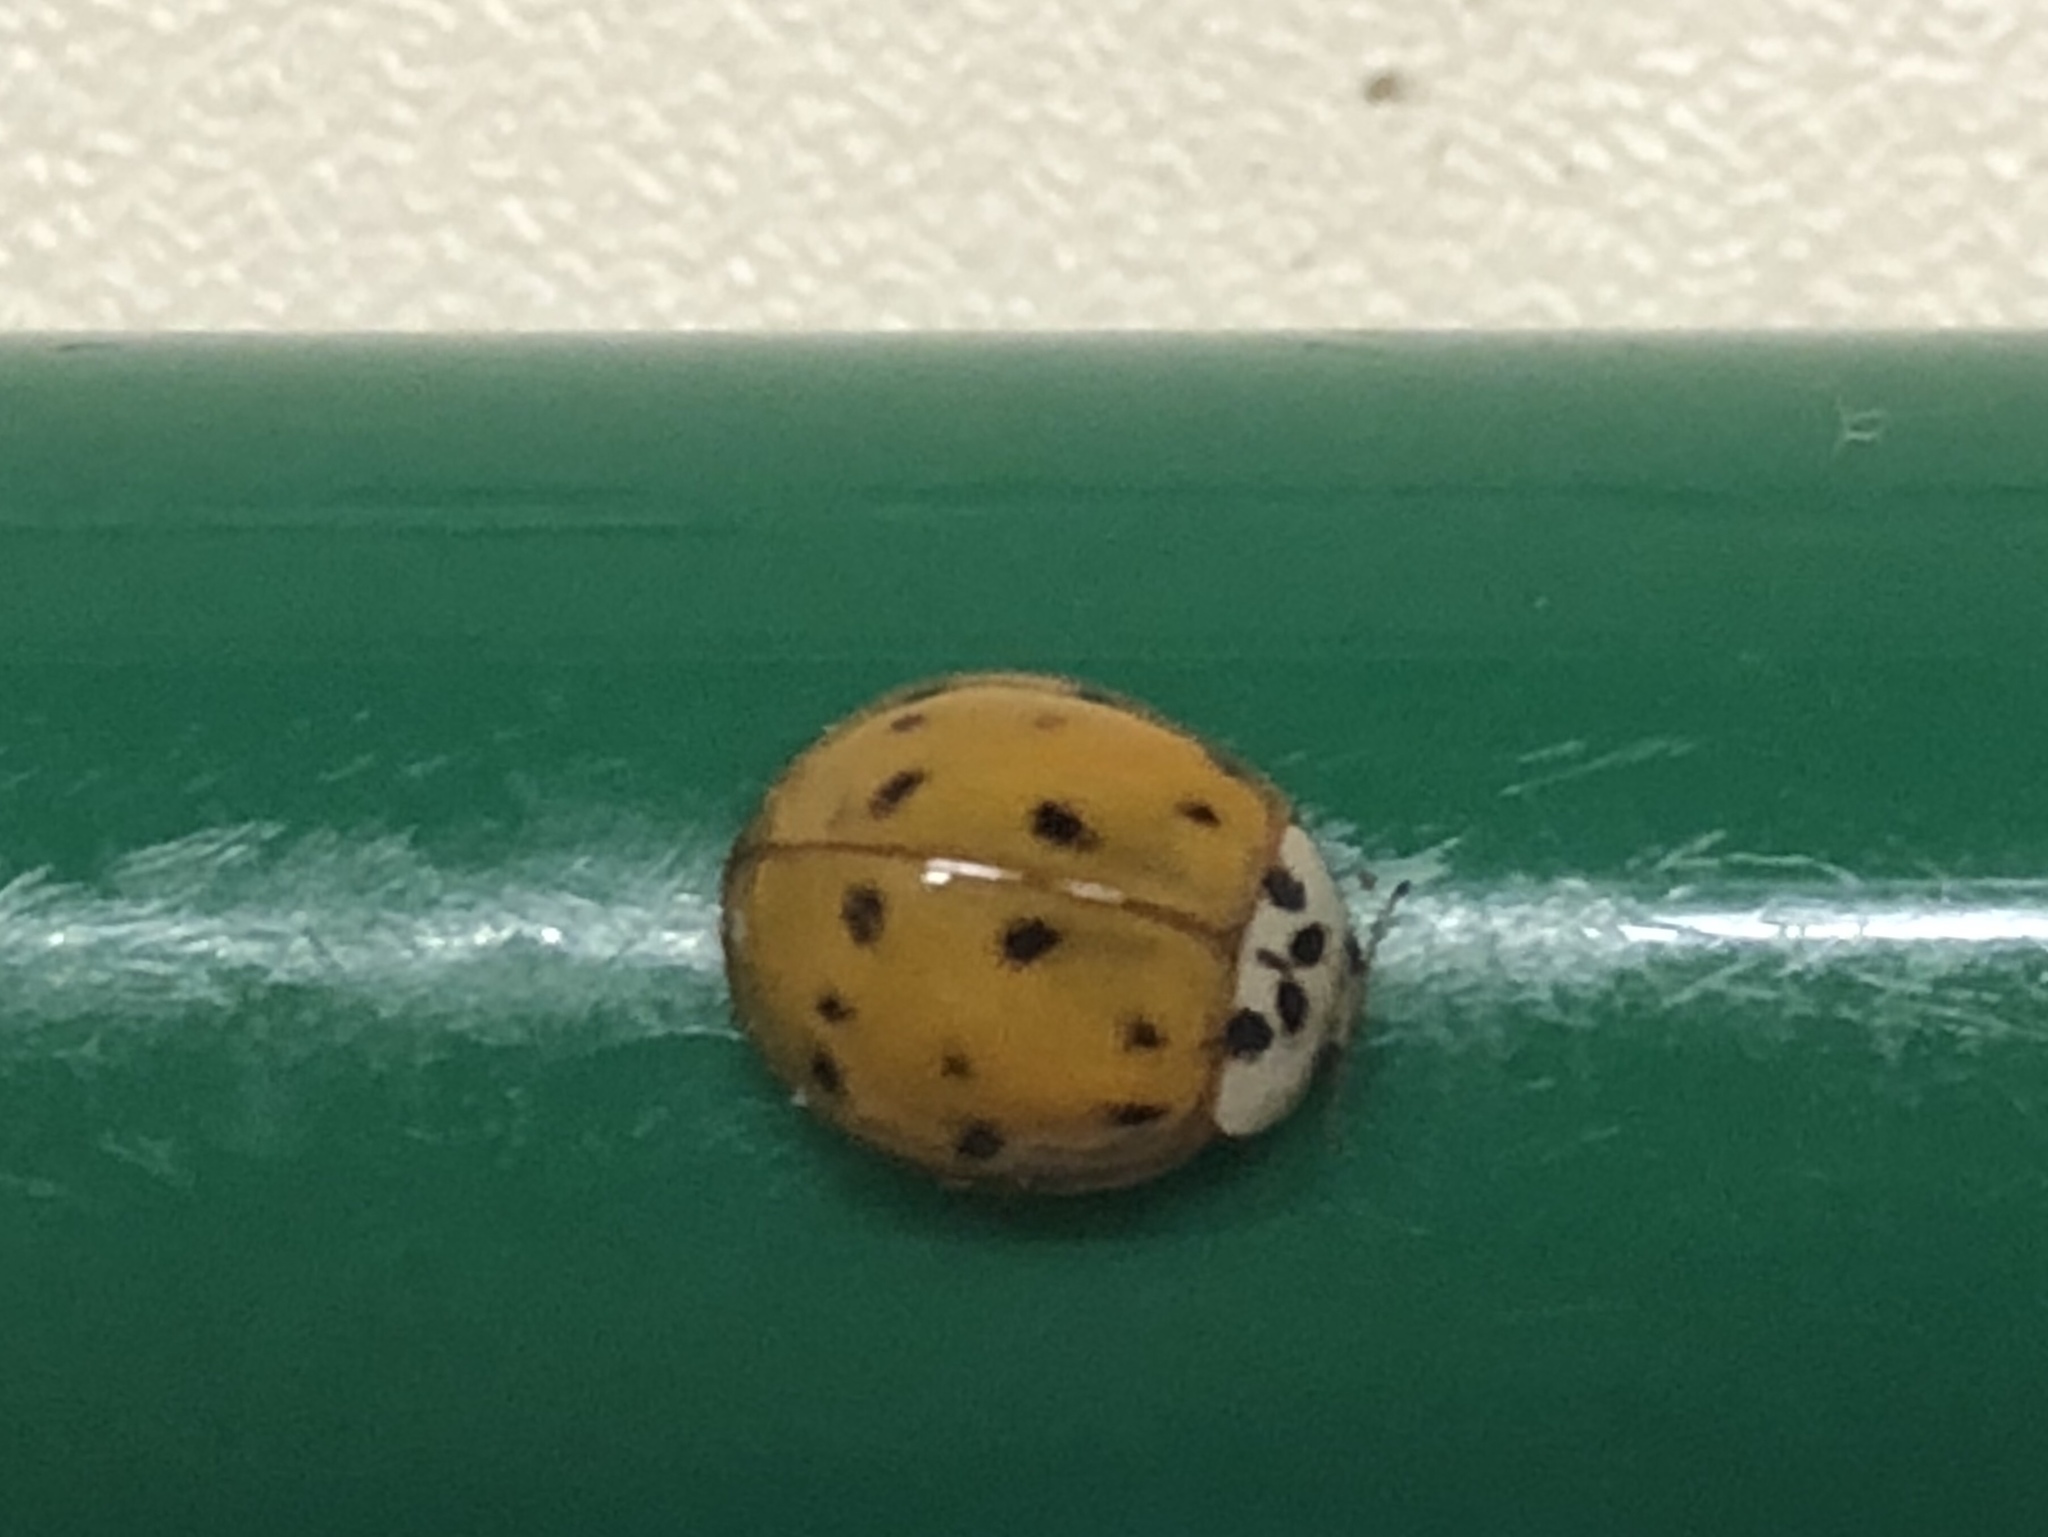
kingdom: Animalia
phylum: Arthropoda
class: Insecta
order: Coleoptera
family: Coccinellidae
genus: Harmonia
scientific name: Harmonia axyridis
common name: Harlequin ladybird
